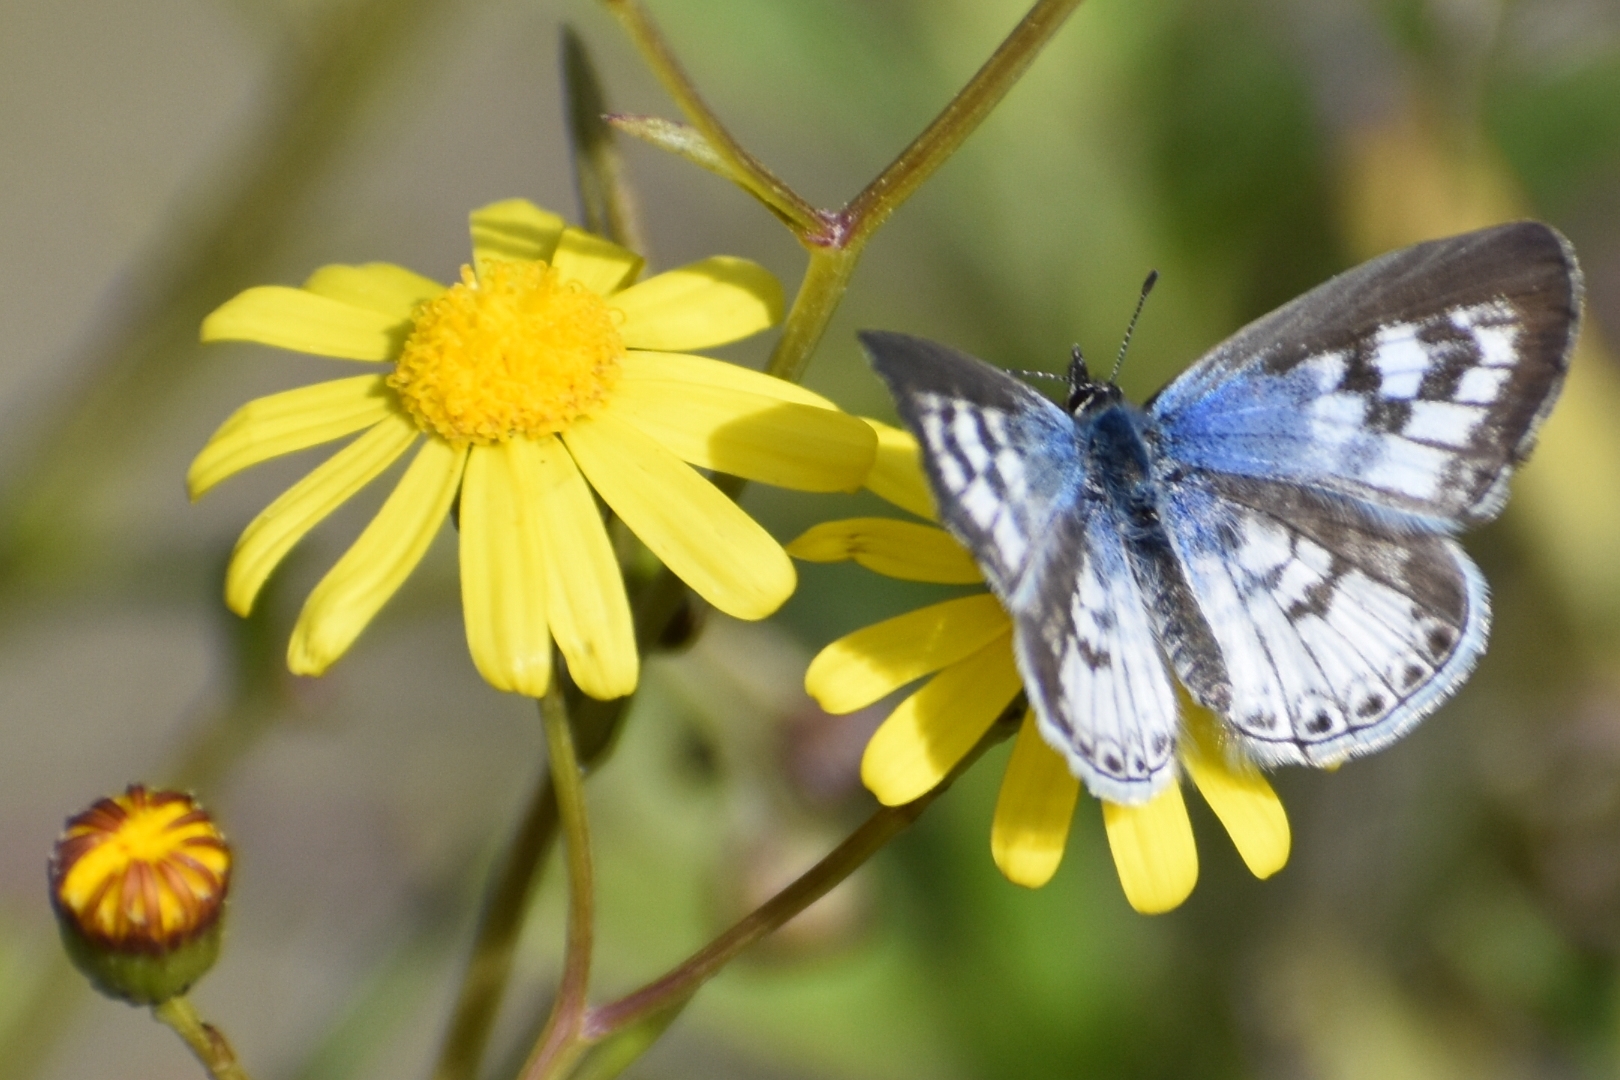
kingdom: Animalia
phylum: Arthropoda
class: Insecta
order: Lepidoptera
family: Lycaenidae
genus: Leptotes
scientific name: Leptotes cassius
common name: Cassius blue
